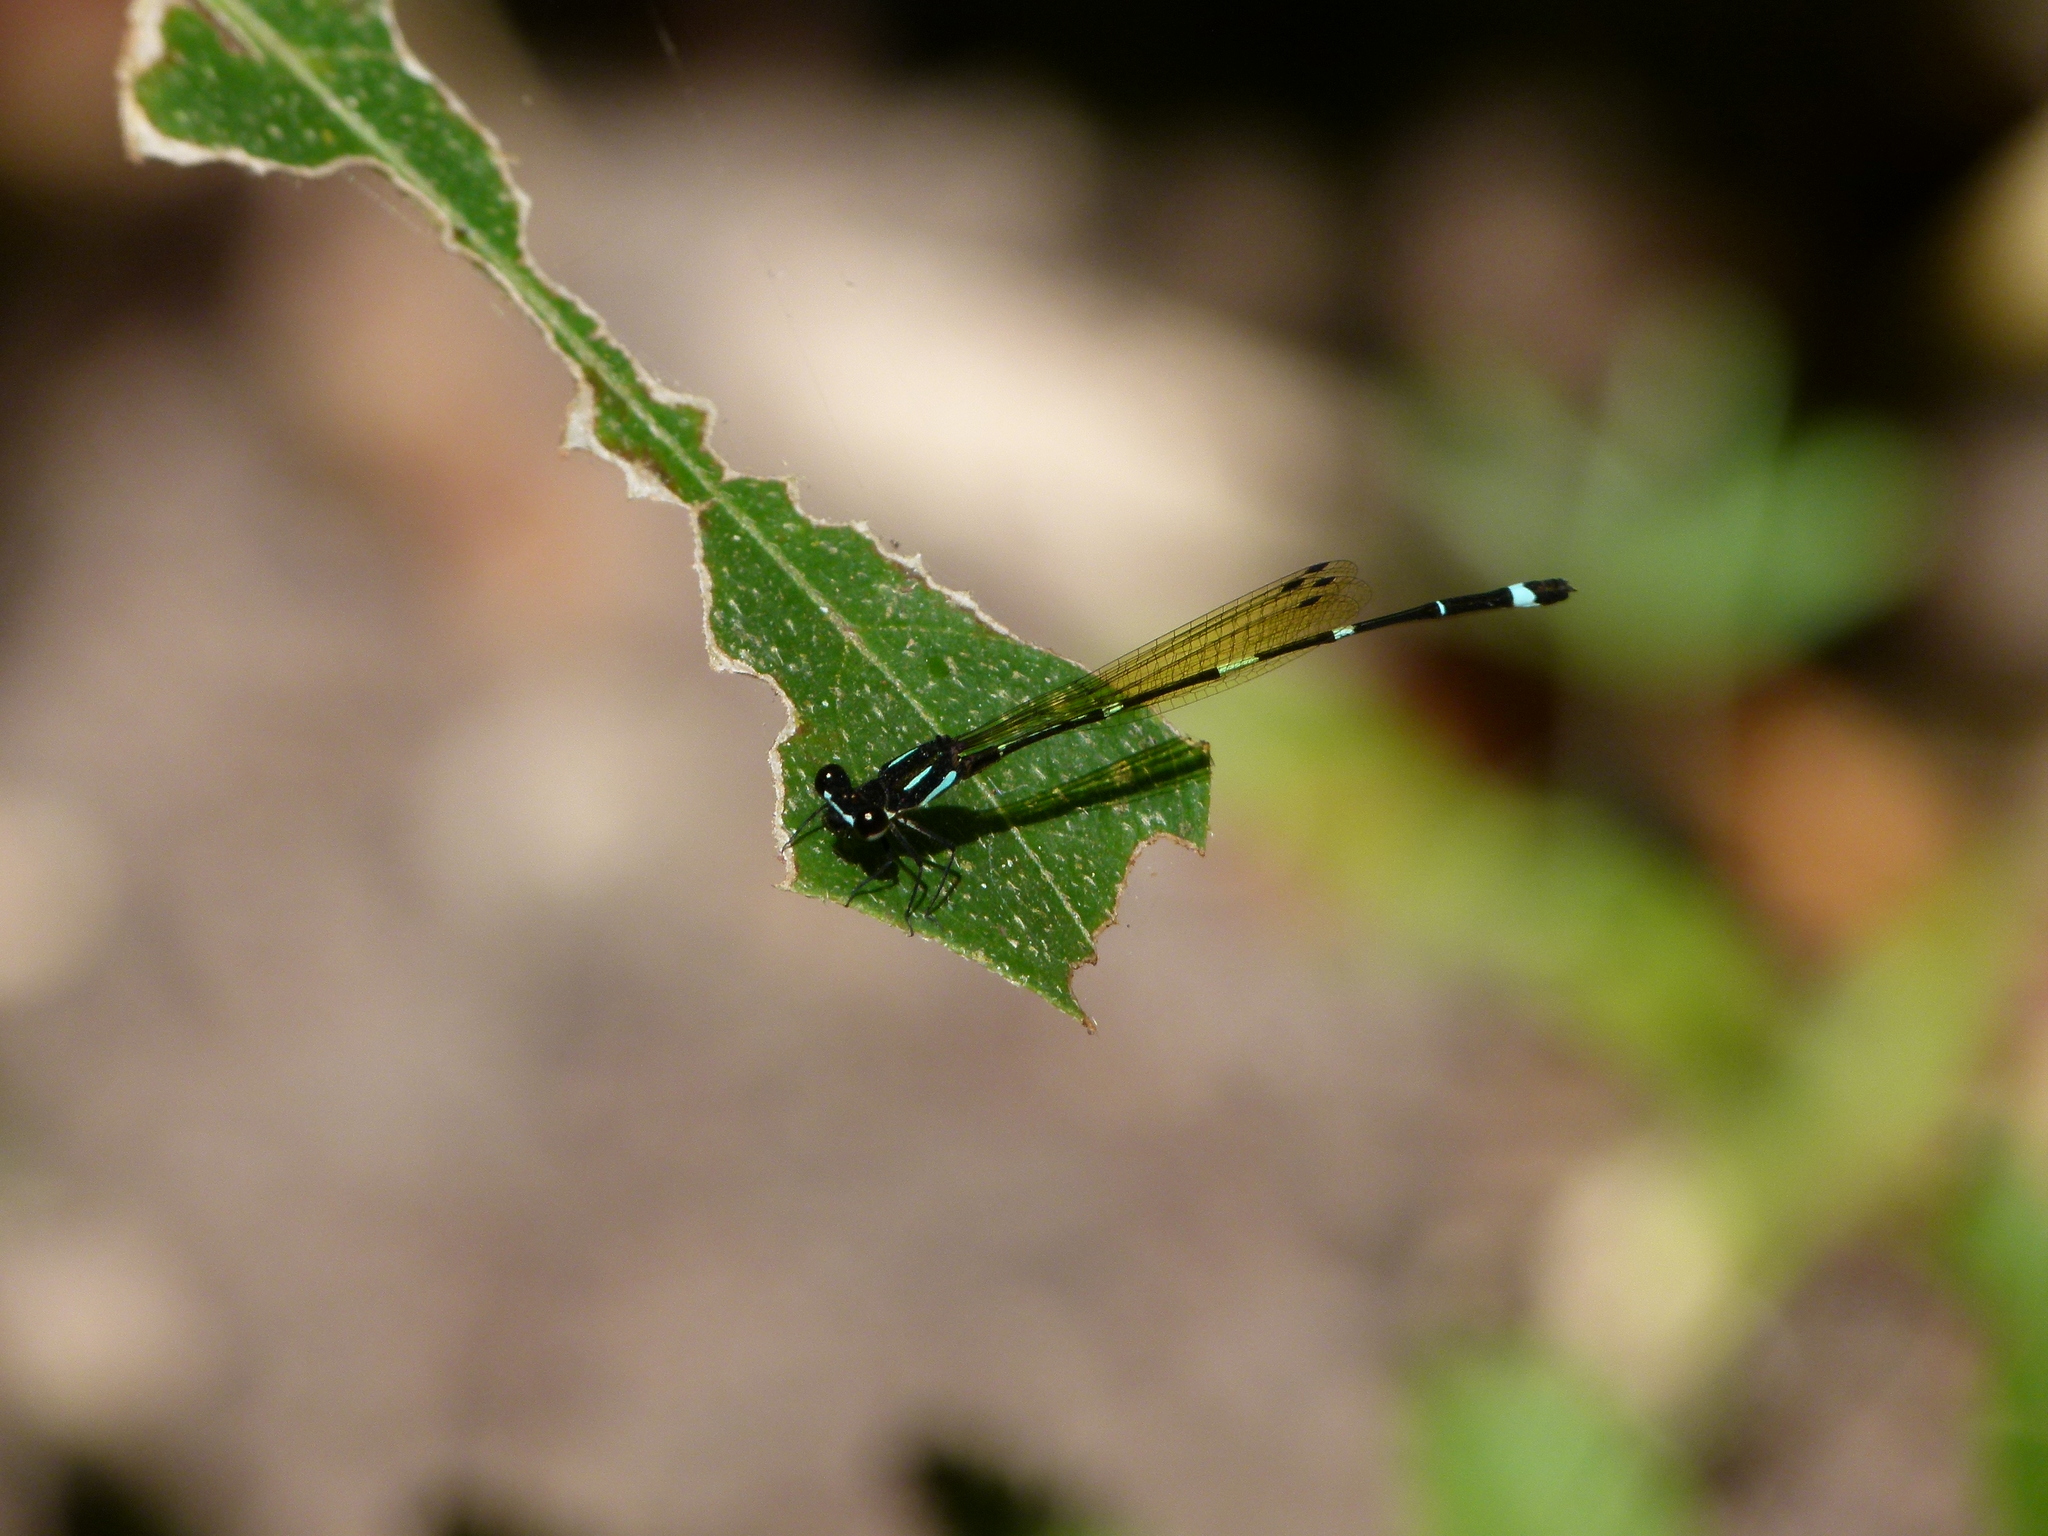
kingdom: Animalia
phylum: Arthropoda
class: Insecta
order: Odonata
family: Platycnemididae
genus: Nososticta
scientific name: Nososticta solitaria
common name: Fivespot threadtail
